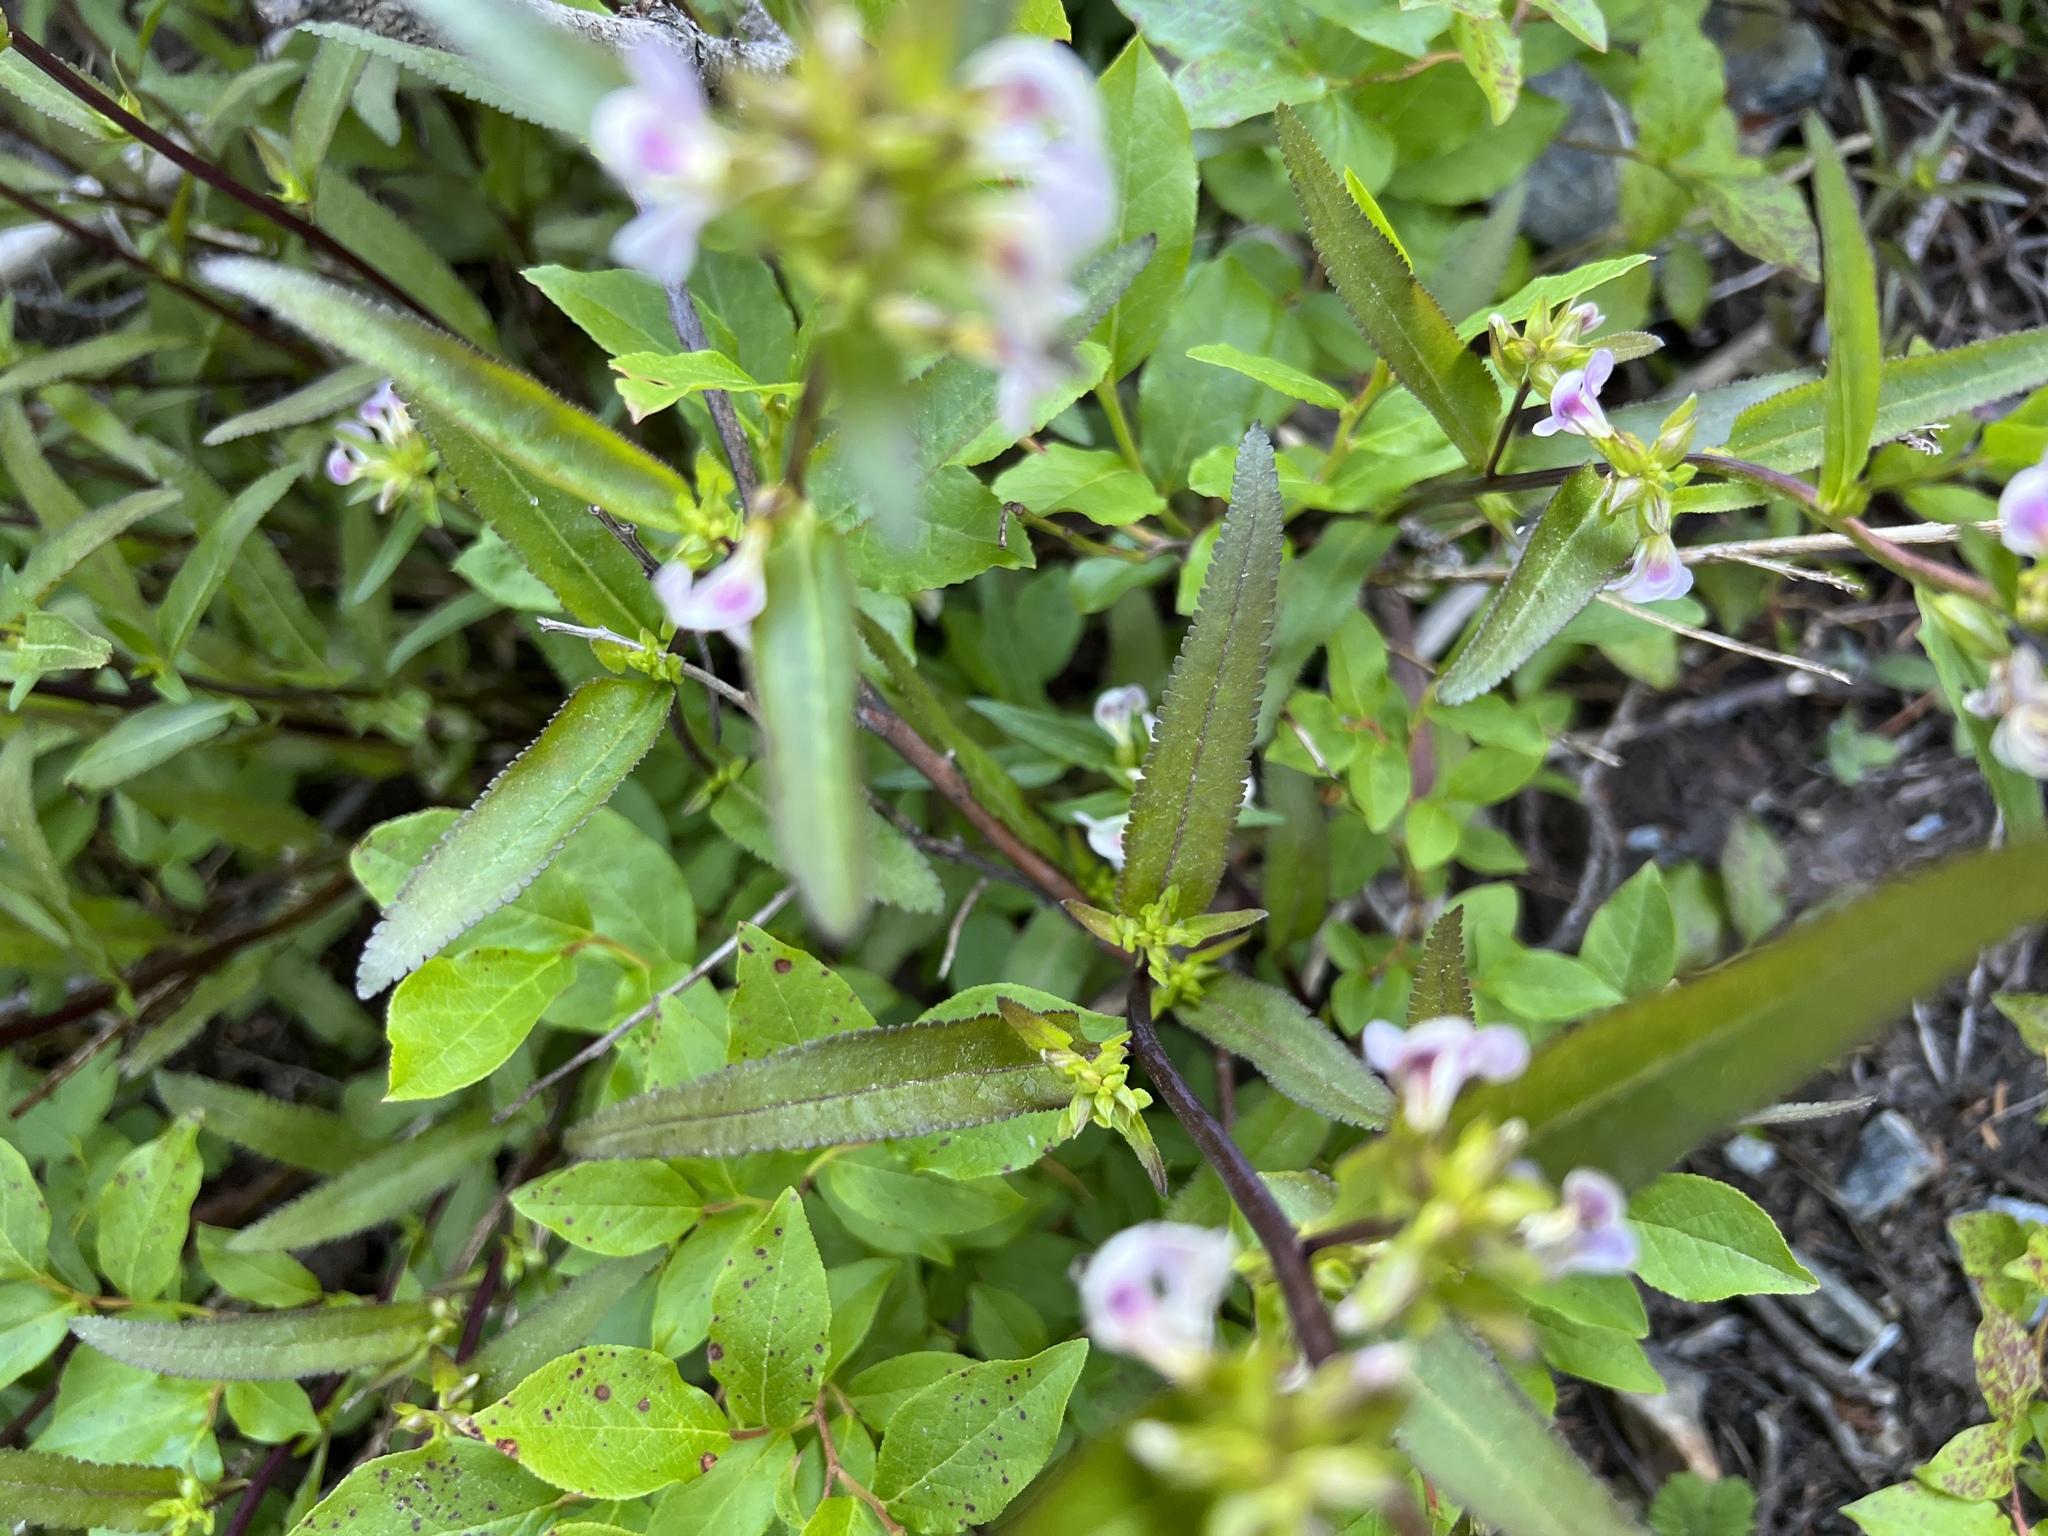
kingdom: Plantae
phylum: Tracheophyta
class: Magnoliopsida
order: Lamiales
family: Orobanchaceae
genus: Pedicularis
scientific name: Pedicularis racemosa
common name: Leafy lousewort
